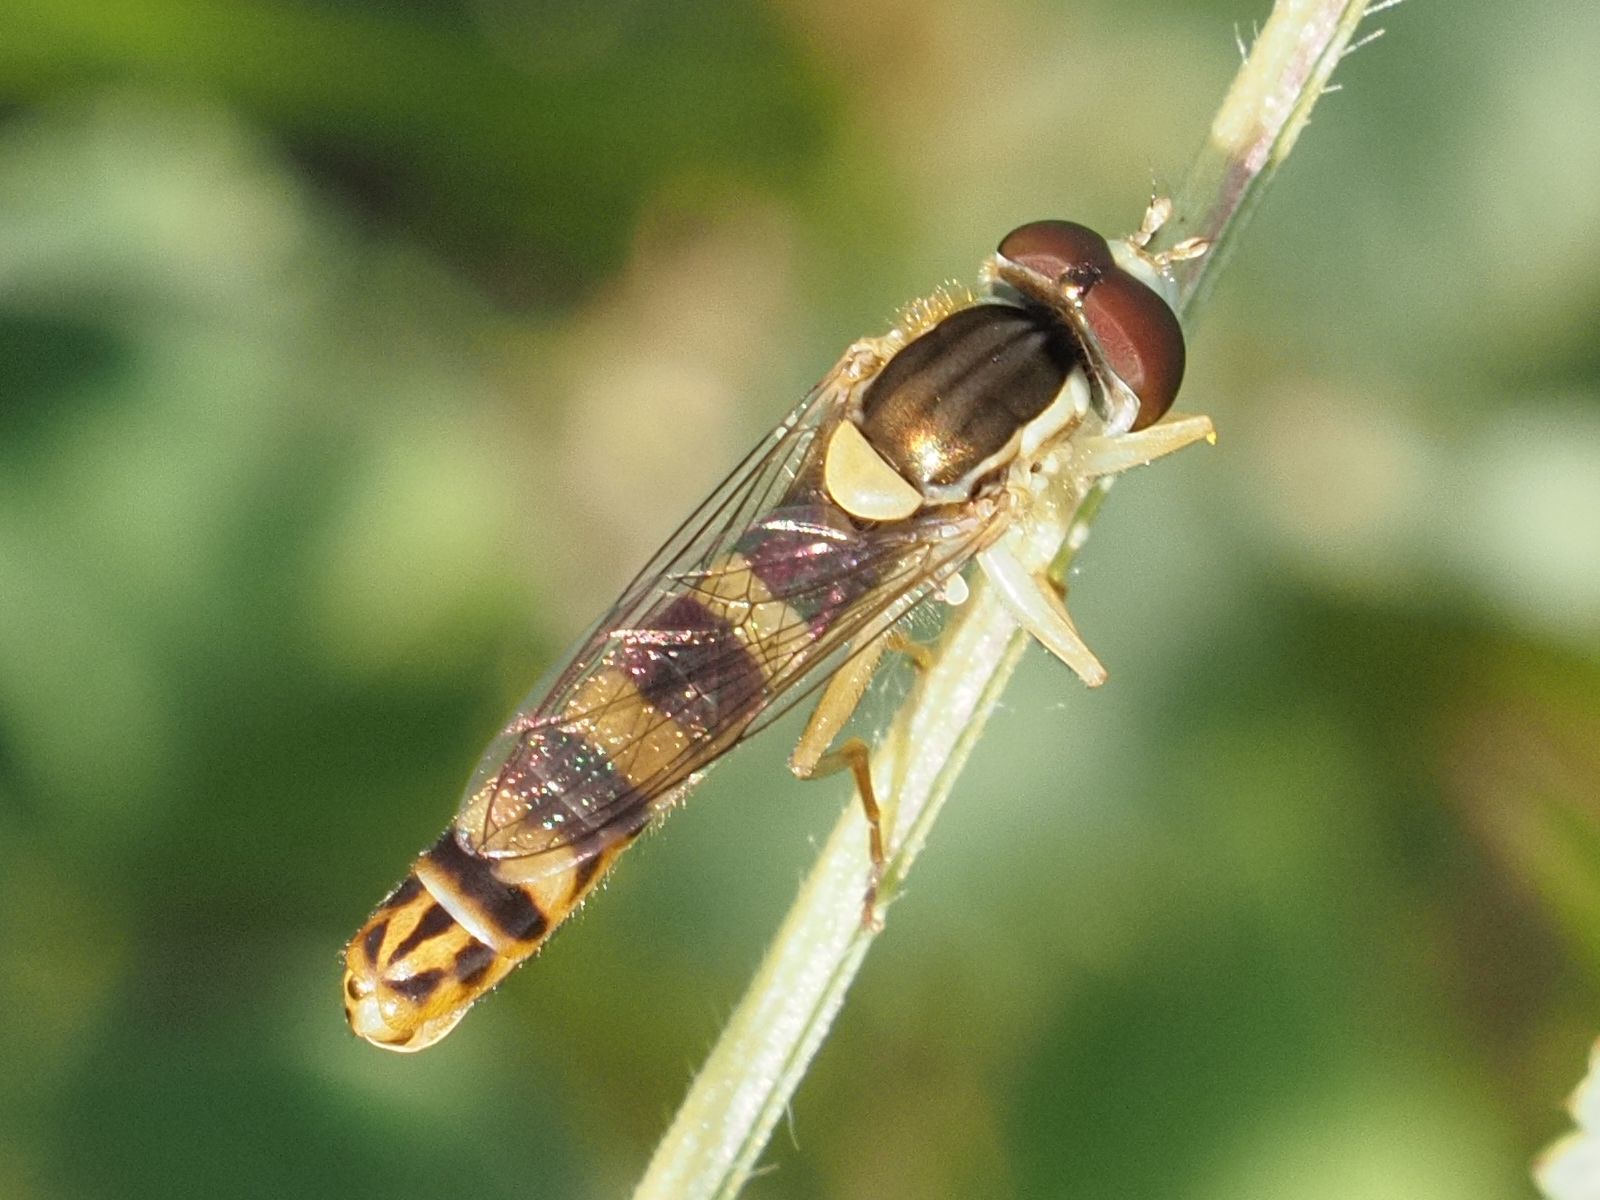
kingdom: Animalia
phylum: Arthropoda
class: Insecta
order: Diptera
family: Syrphidae
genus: Sphaerophoria
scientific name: Sphaerophoria scripta
